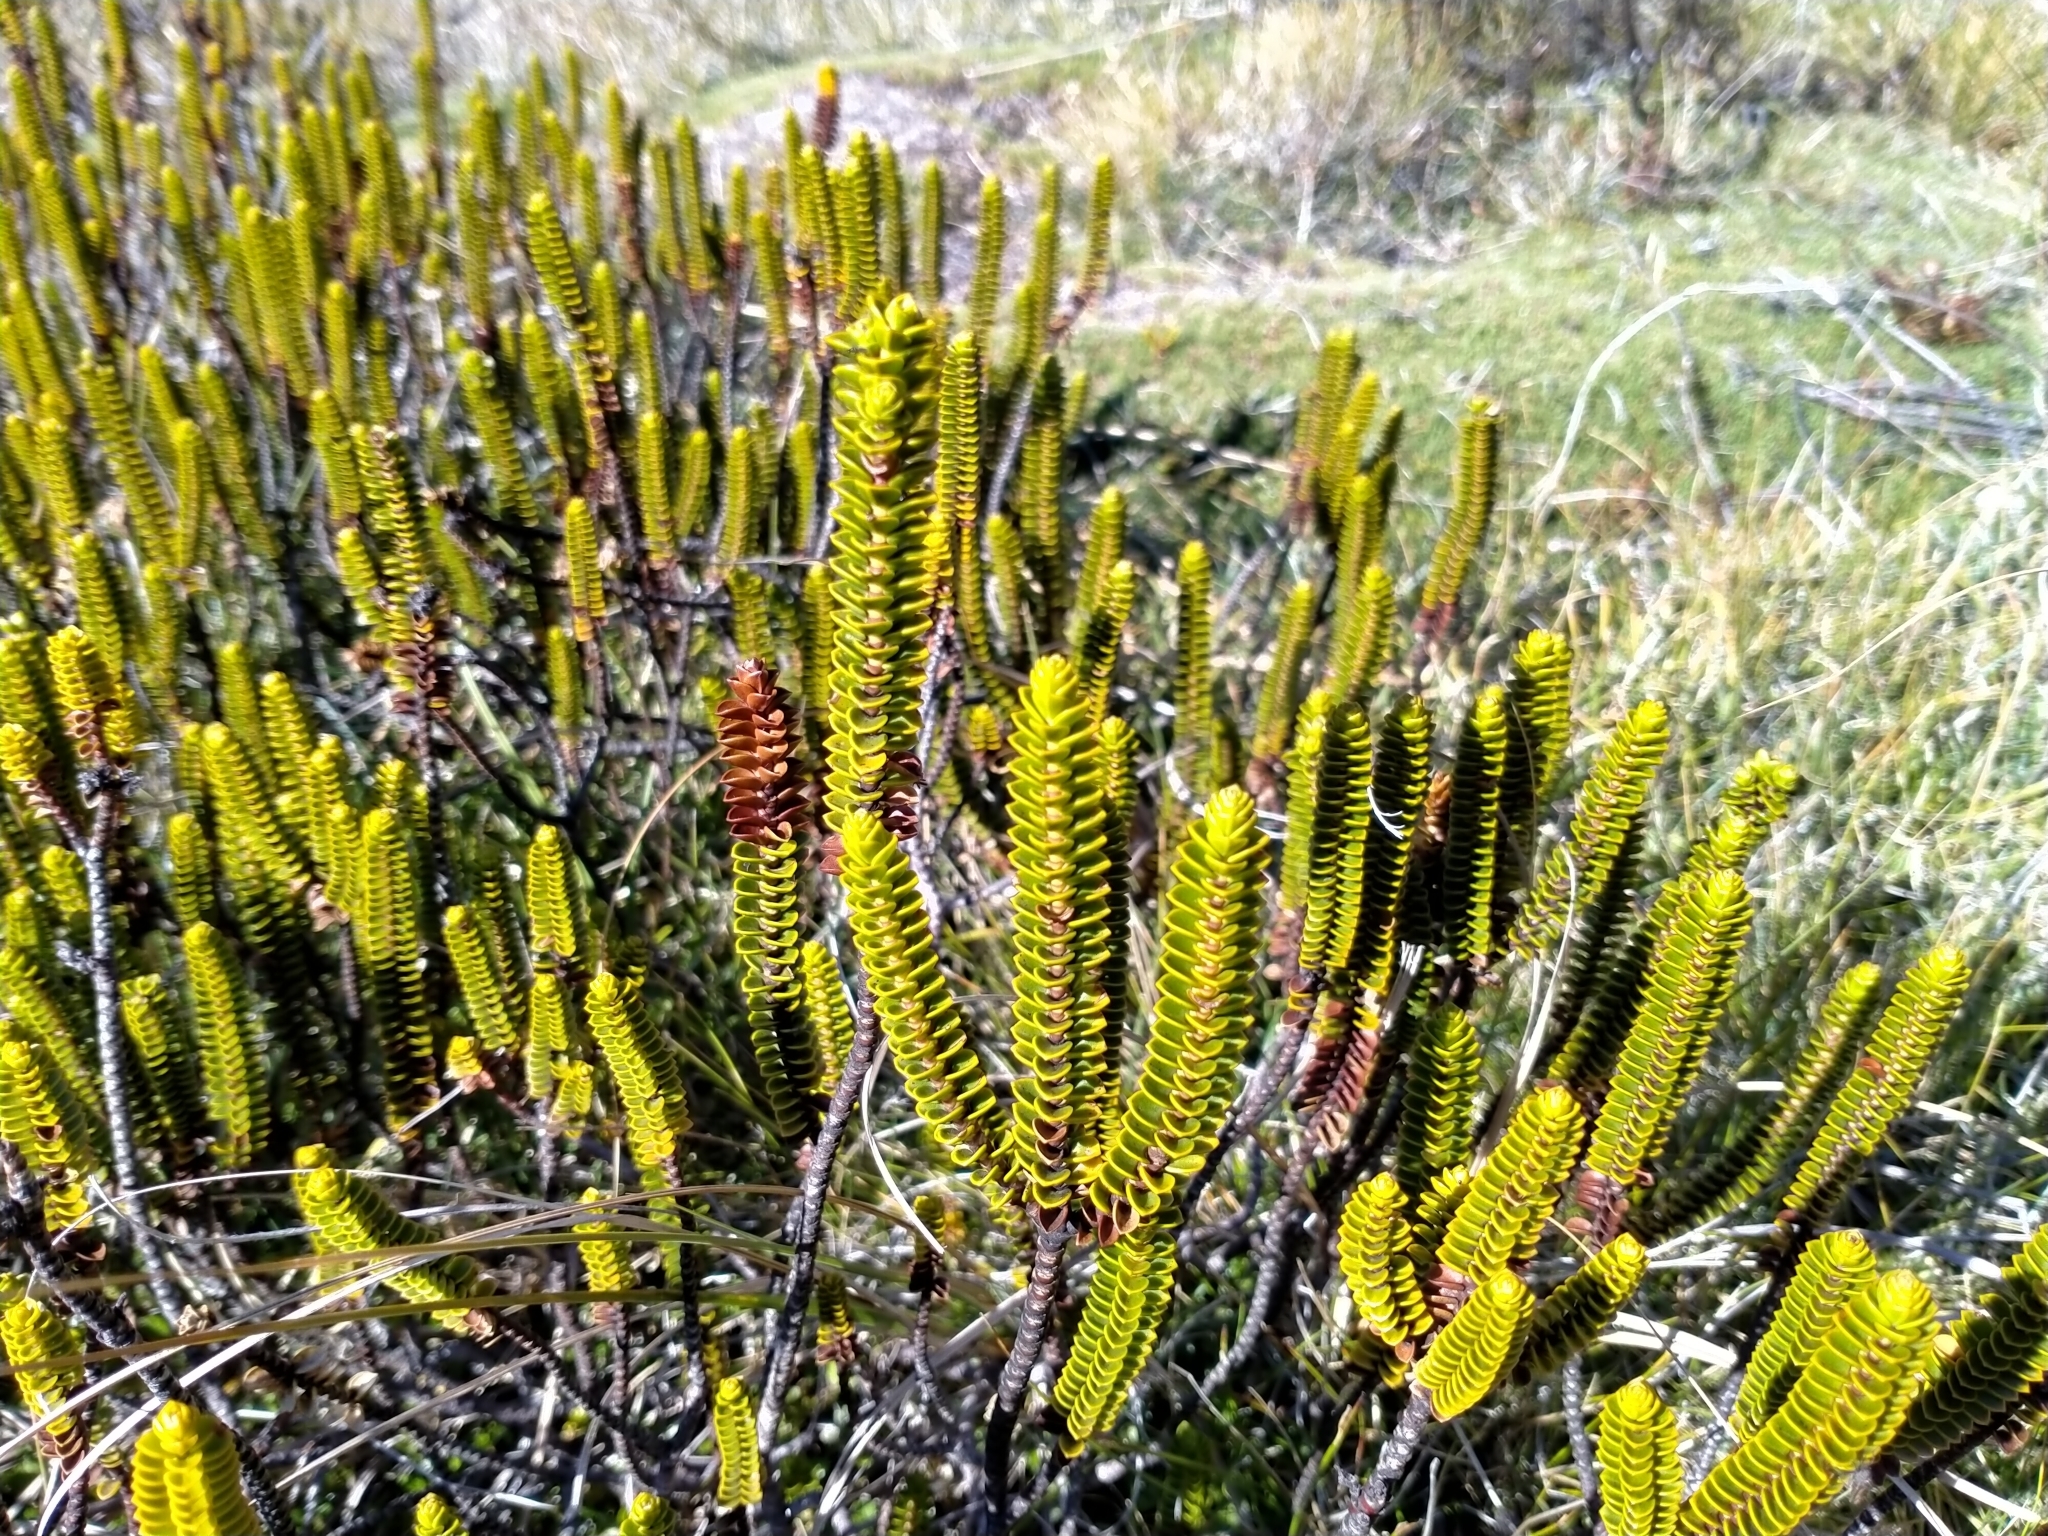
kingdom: Plantae
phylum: Tracheophyta
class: Magnoliopsida
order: Lamiales
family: Plantaginaceae
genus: Veronica
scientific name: Veronica pauciramosa
